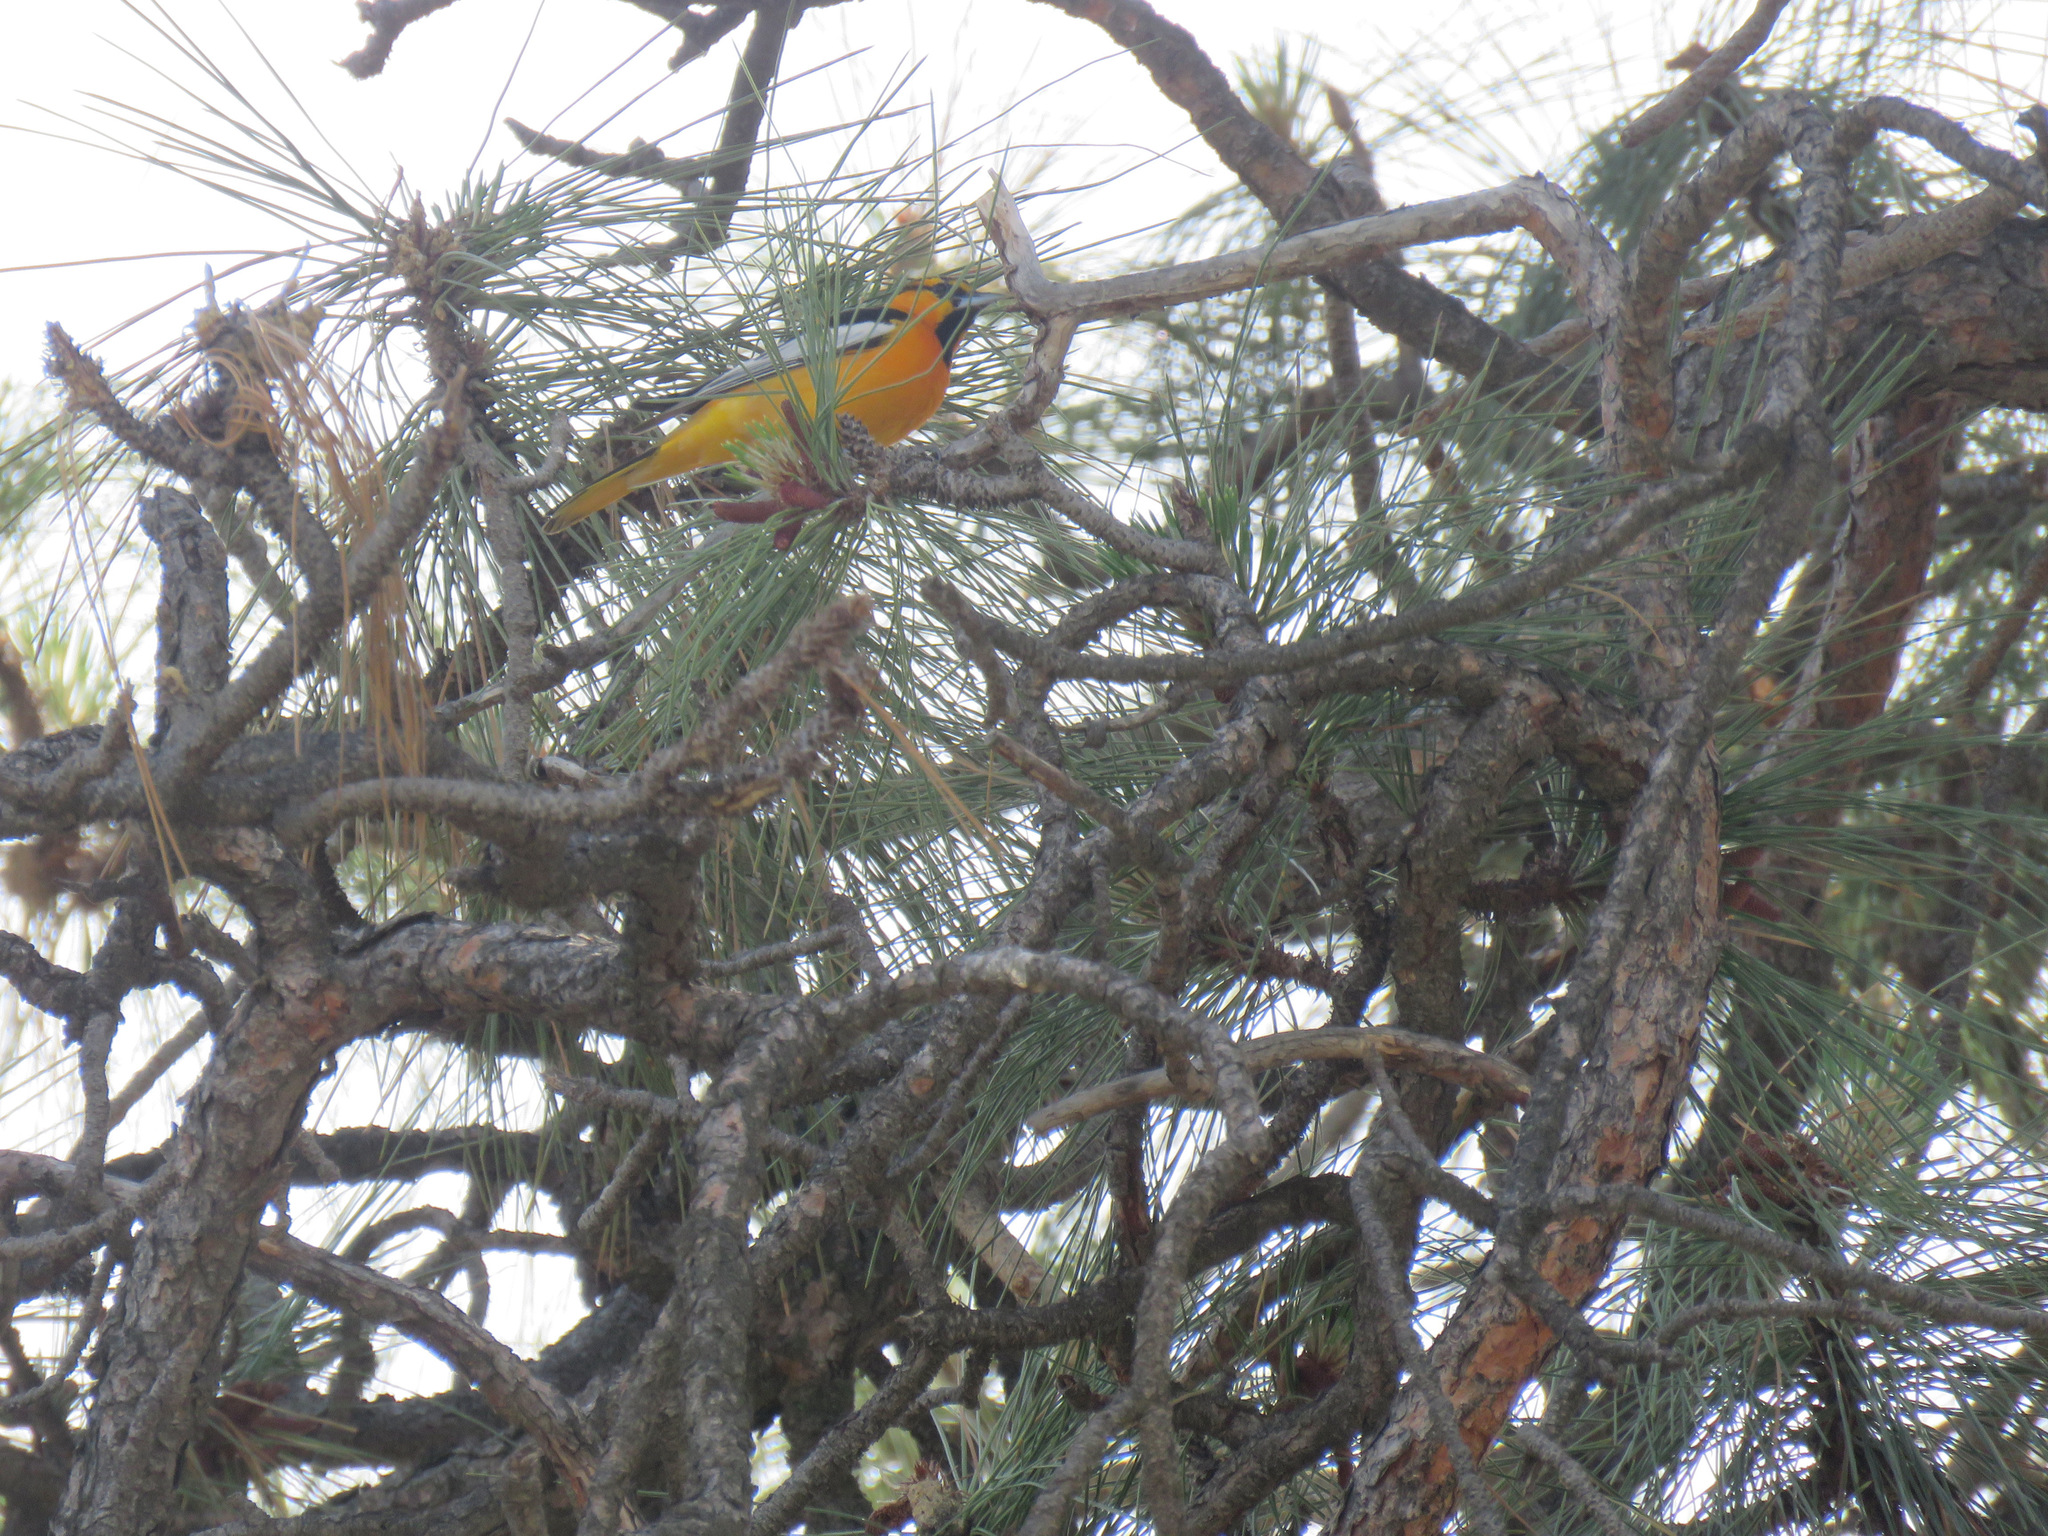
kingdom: Animalia
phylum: Chordata
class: Aves
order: Passeriformes
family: Icteridae
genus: Icterus
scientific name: Icterus bullockii
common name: Bullock's oriole
